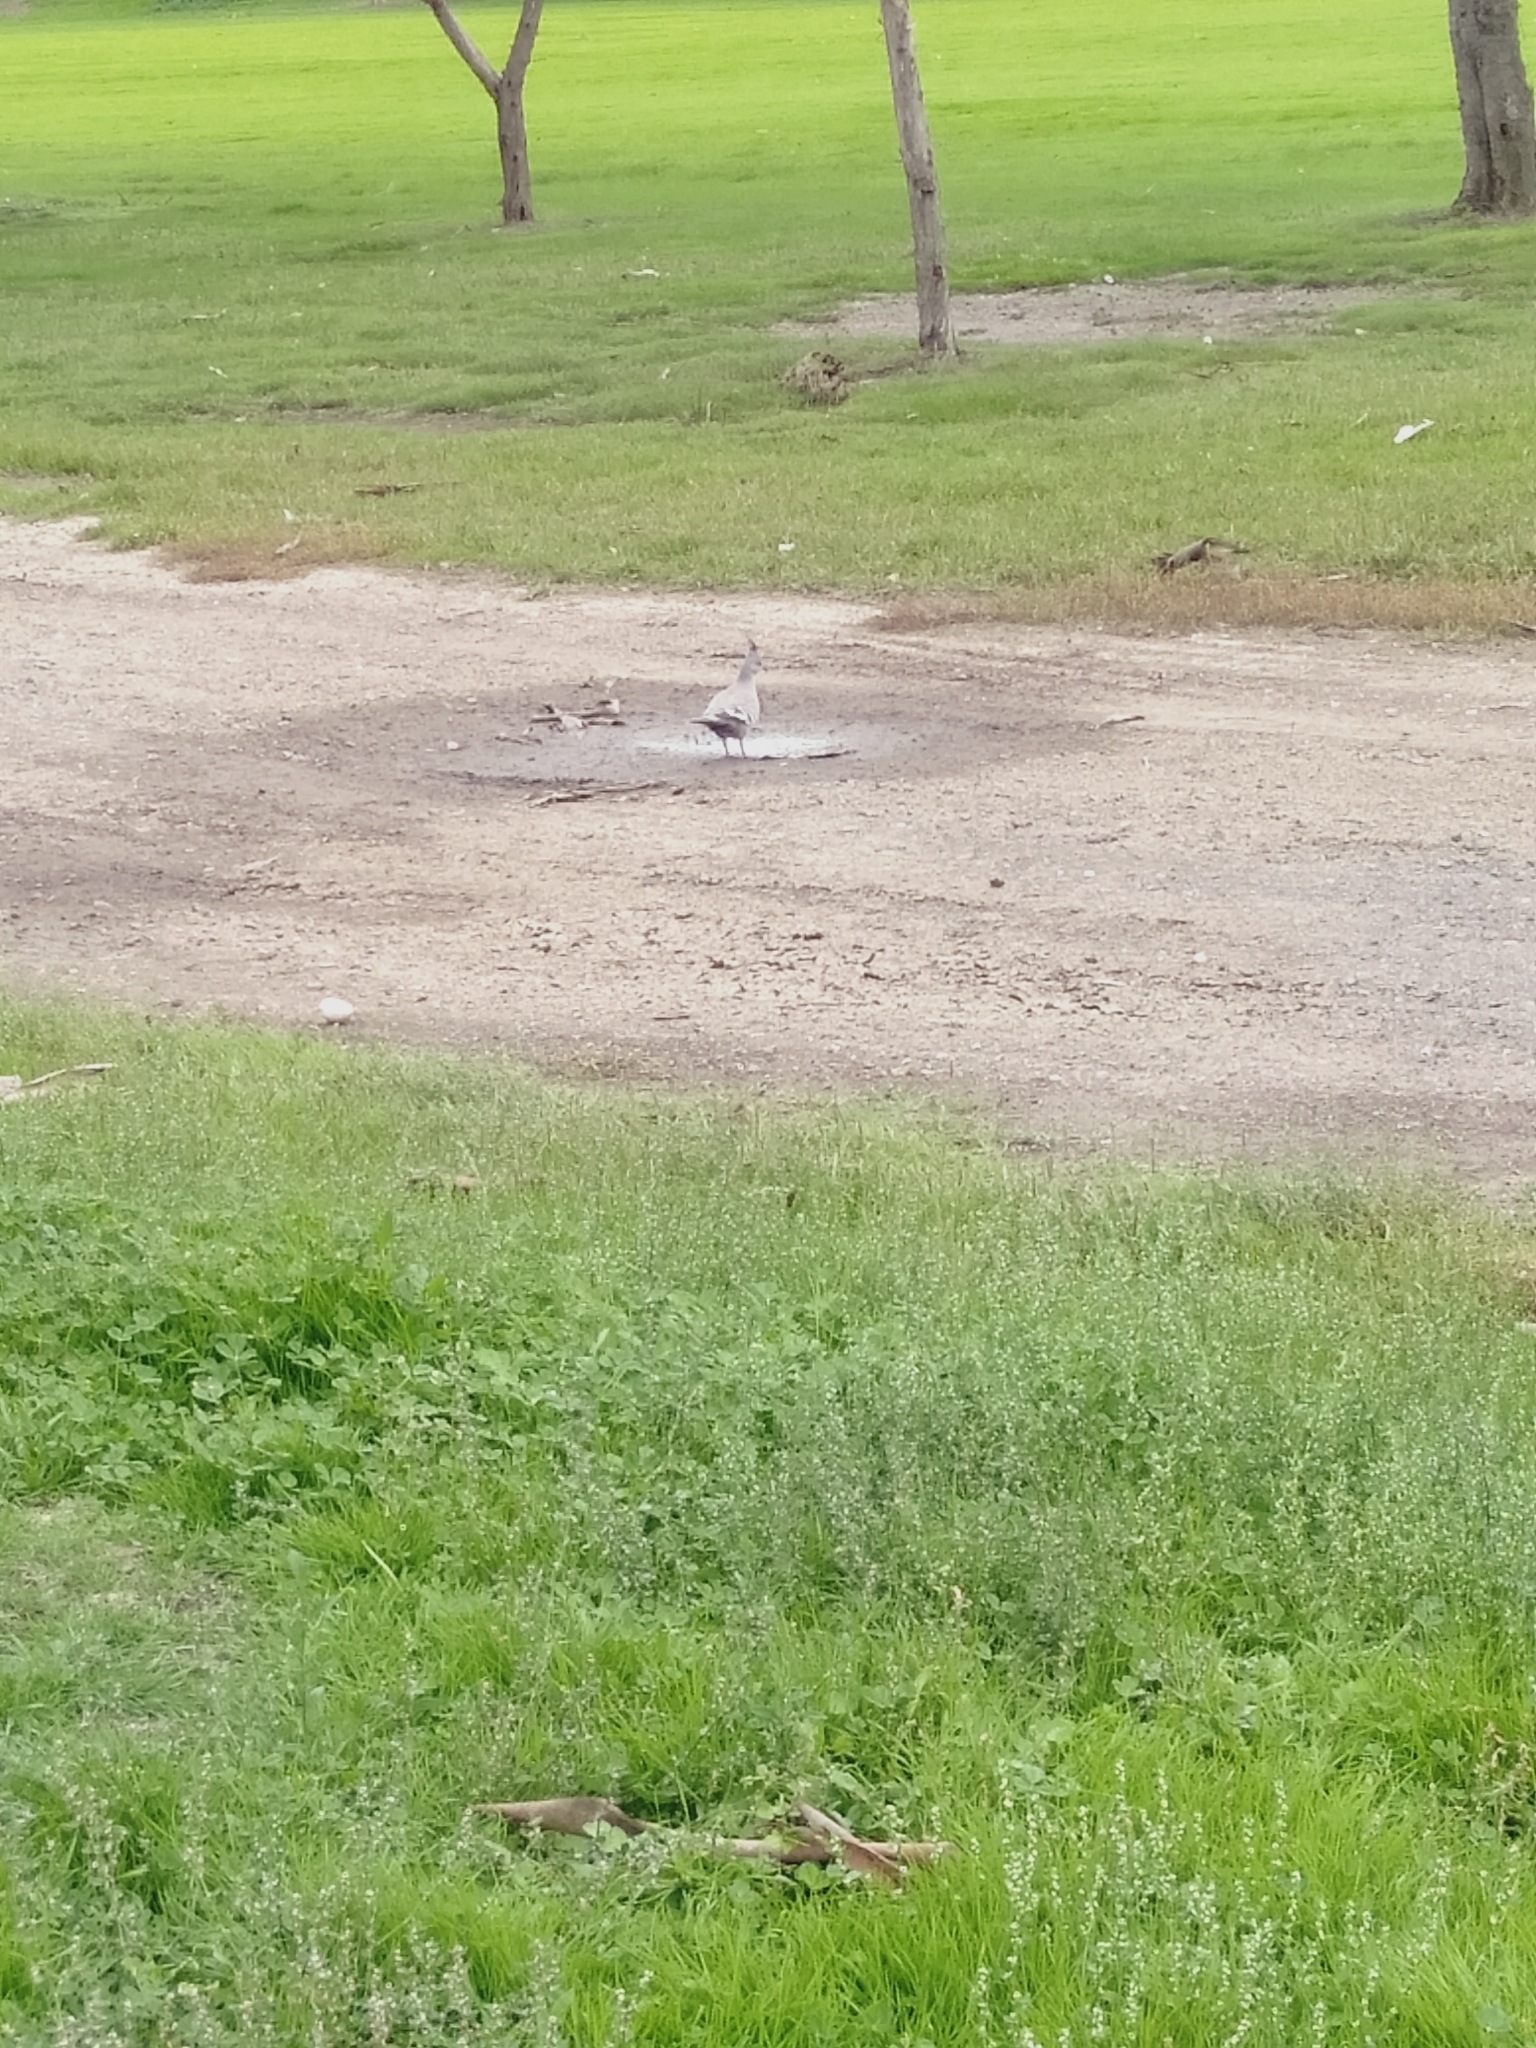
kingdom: Animalia
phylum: Chordata
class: Aves
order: Columbiformes
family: Columbidae
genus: Ocyphaps
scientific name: Ocyphaps lophotes
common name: Crested pigeon
